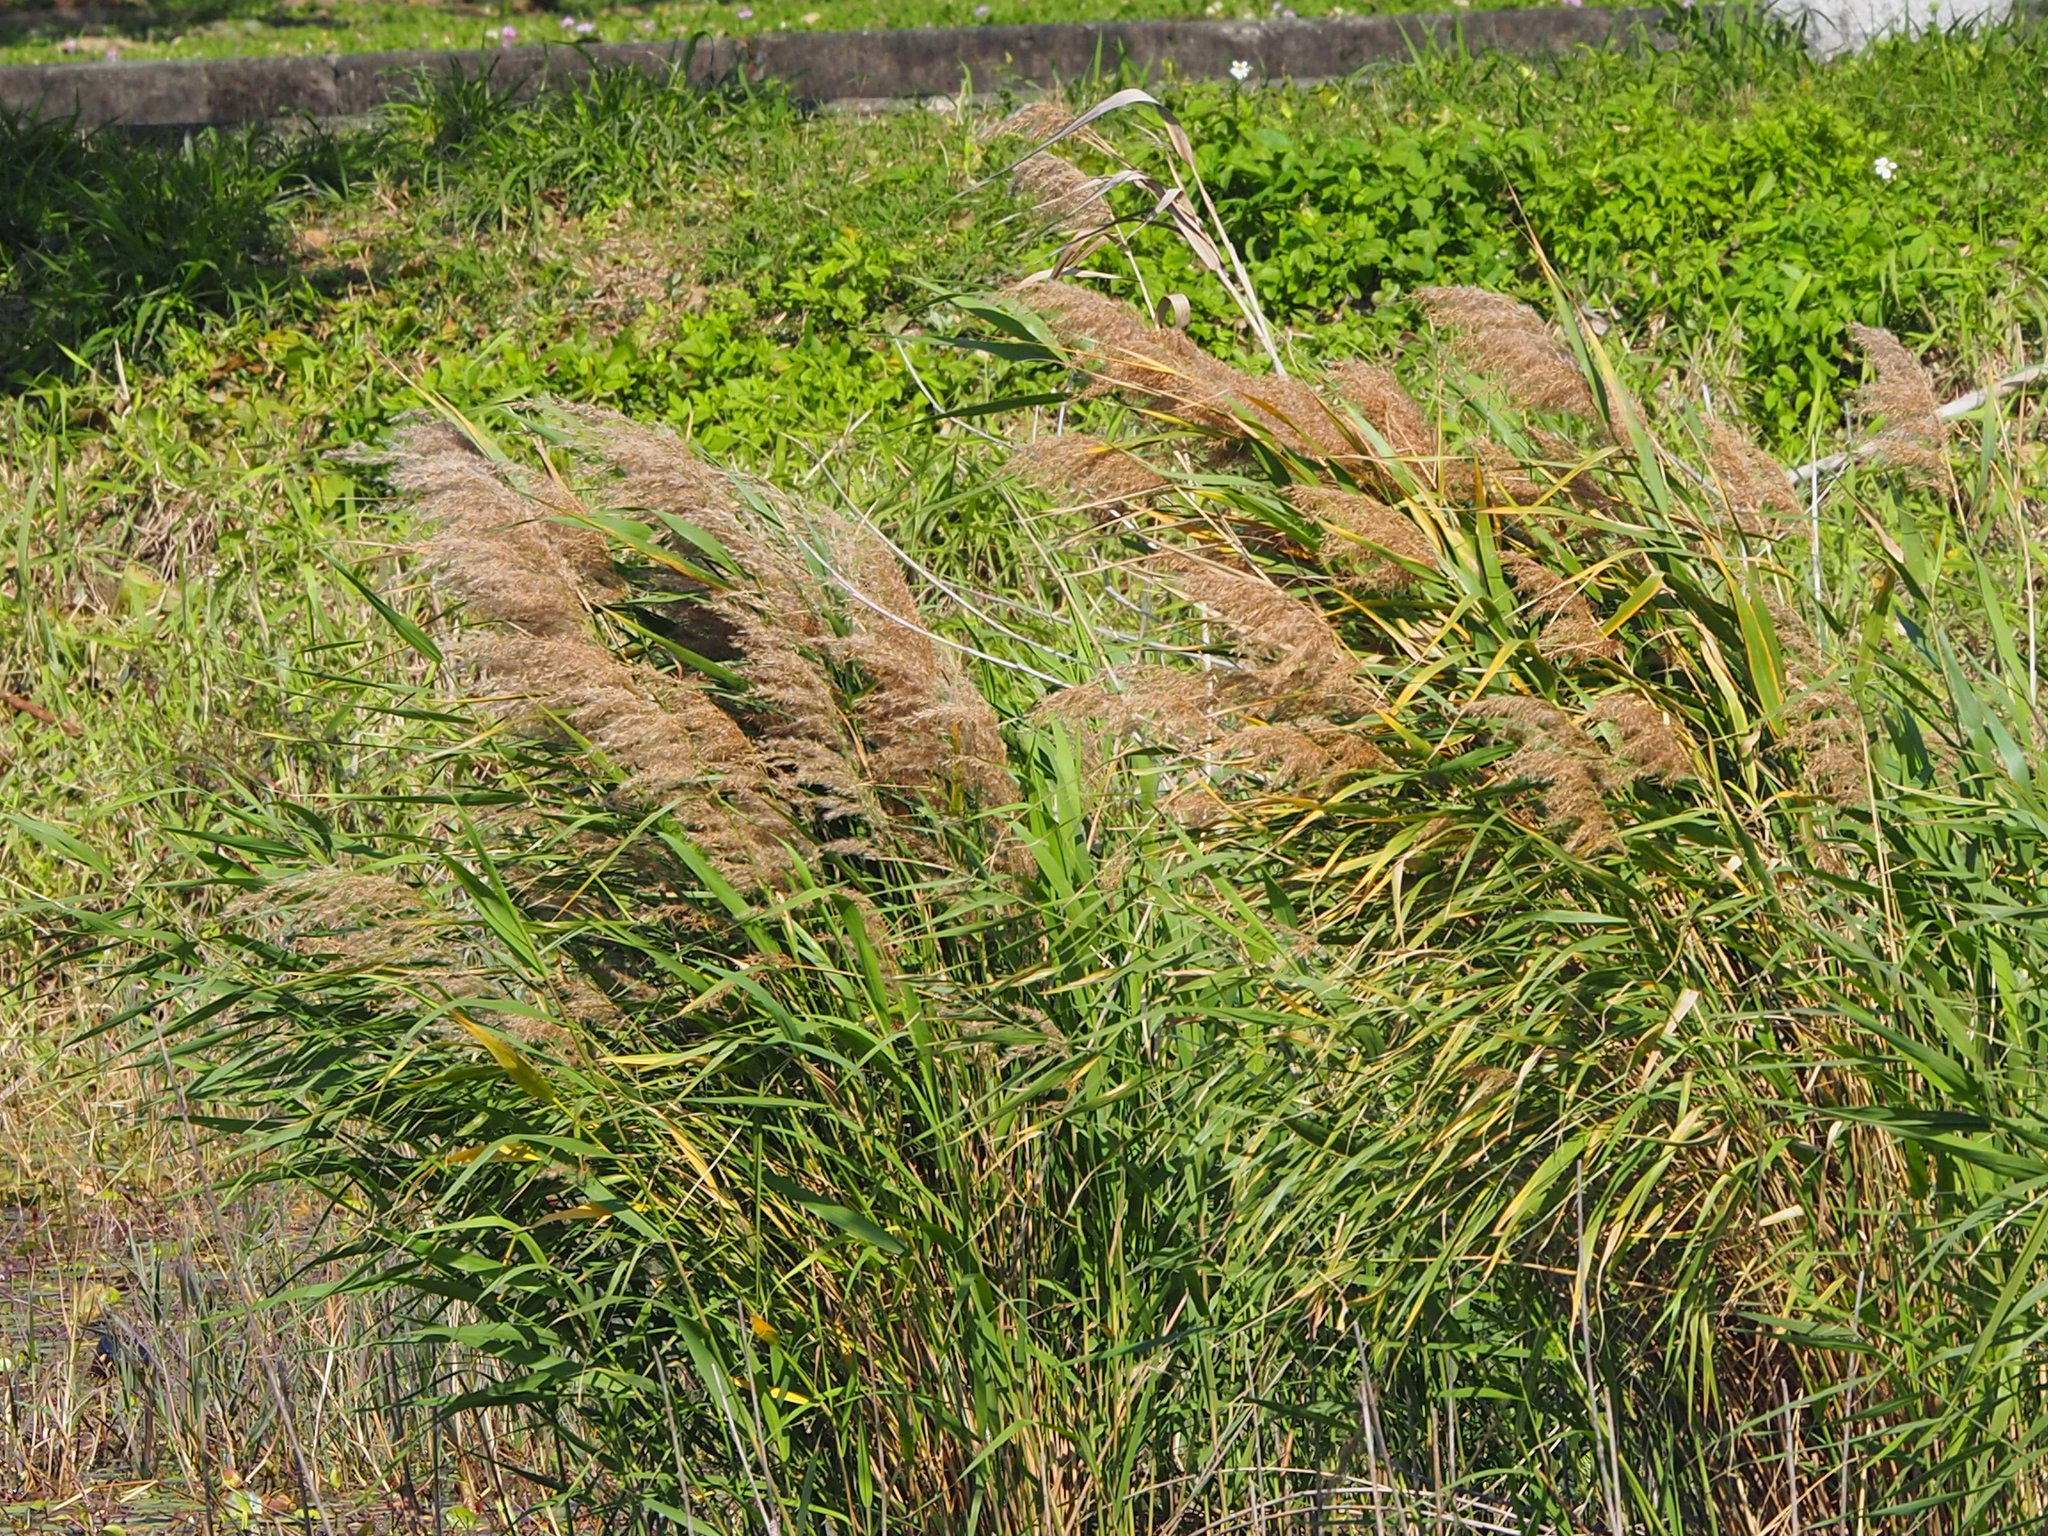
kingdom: Plantae
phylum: Tracheophyta
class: Liliopsida
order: Poales
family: Poaceae
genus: Phragmites
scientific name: Phragmites australis
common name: Common reed
